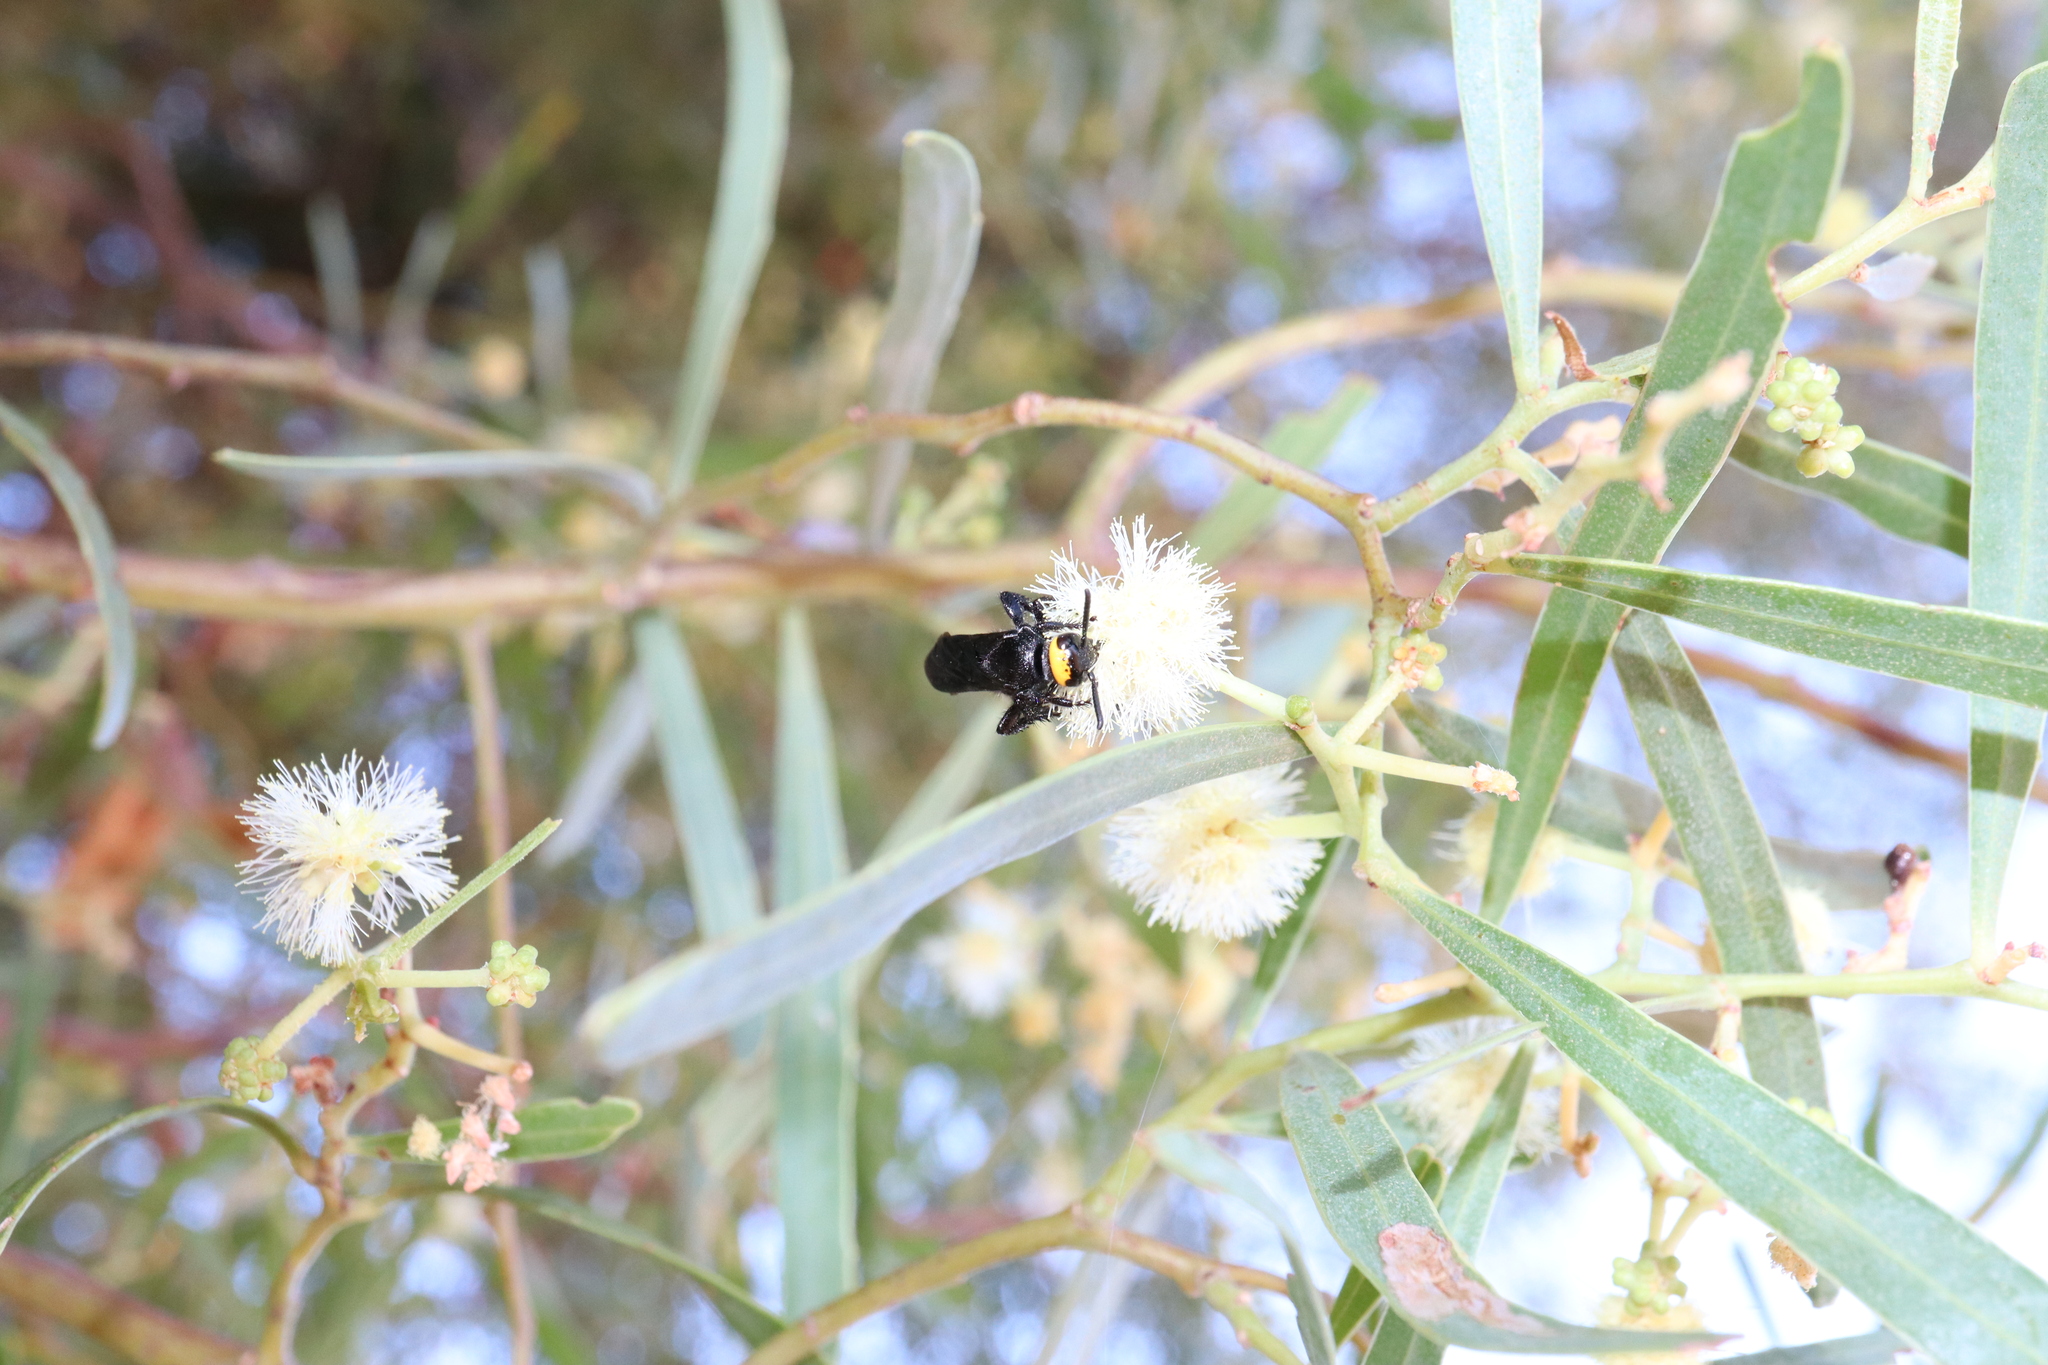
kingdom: Animalia
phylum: Arthropoda
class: Insecta
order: Hymenoptera
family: Scoliidae
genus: Scolia
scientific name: Scolia verticalis
